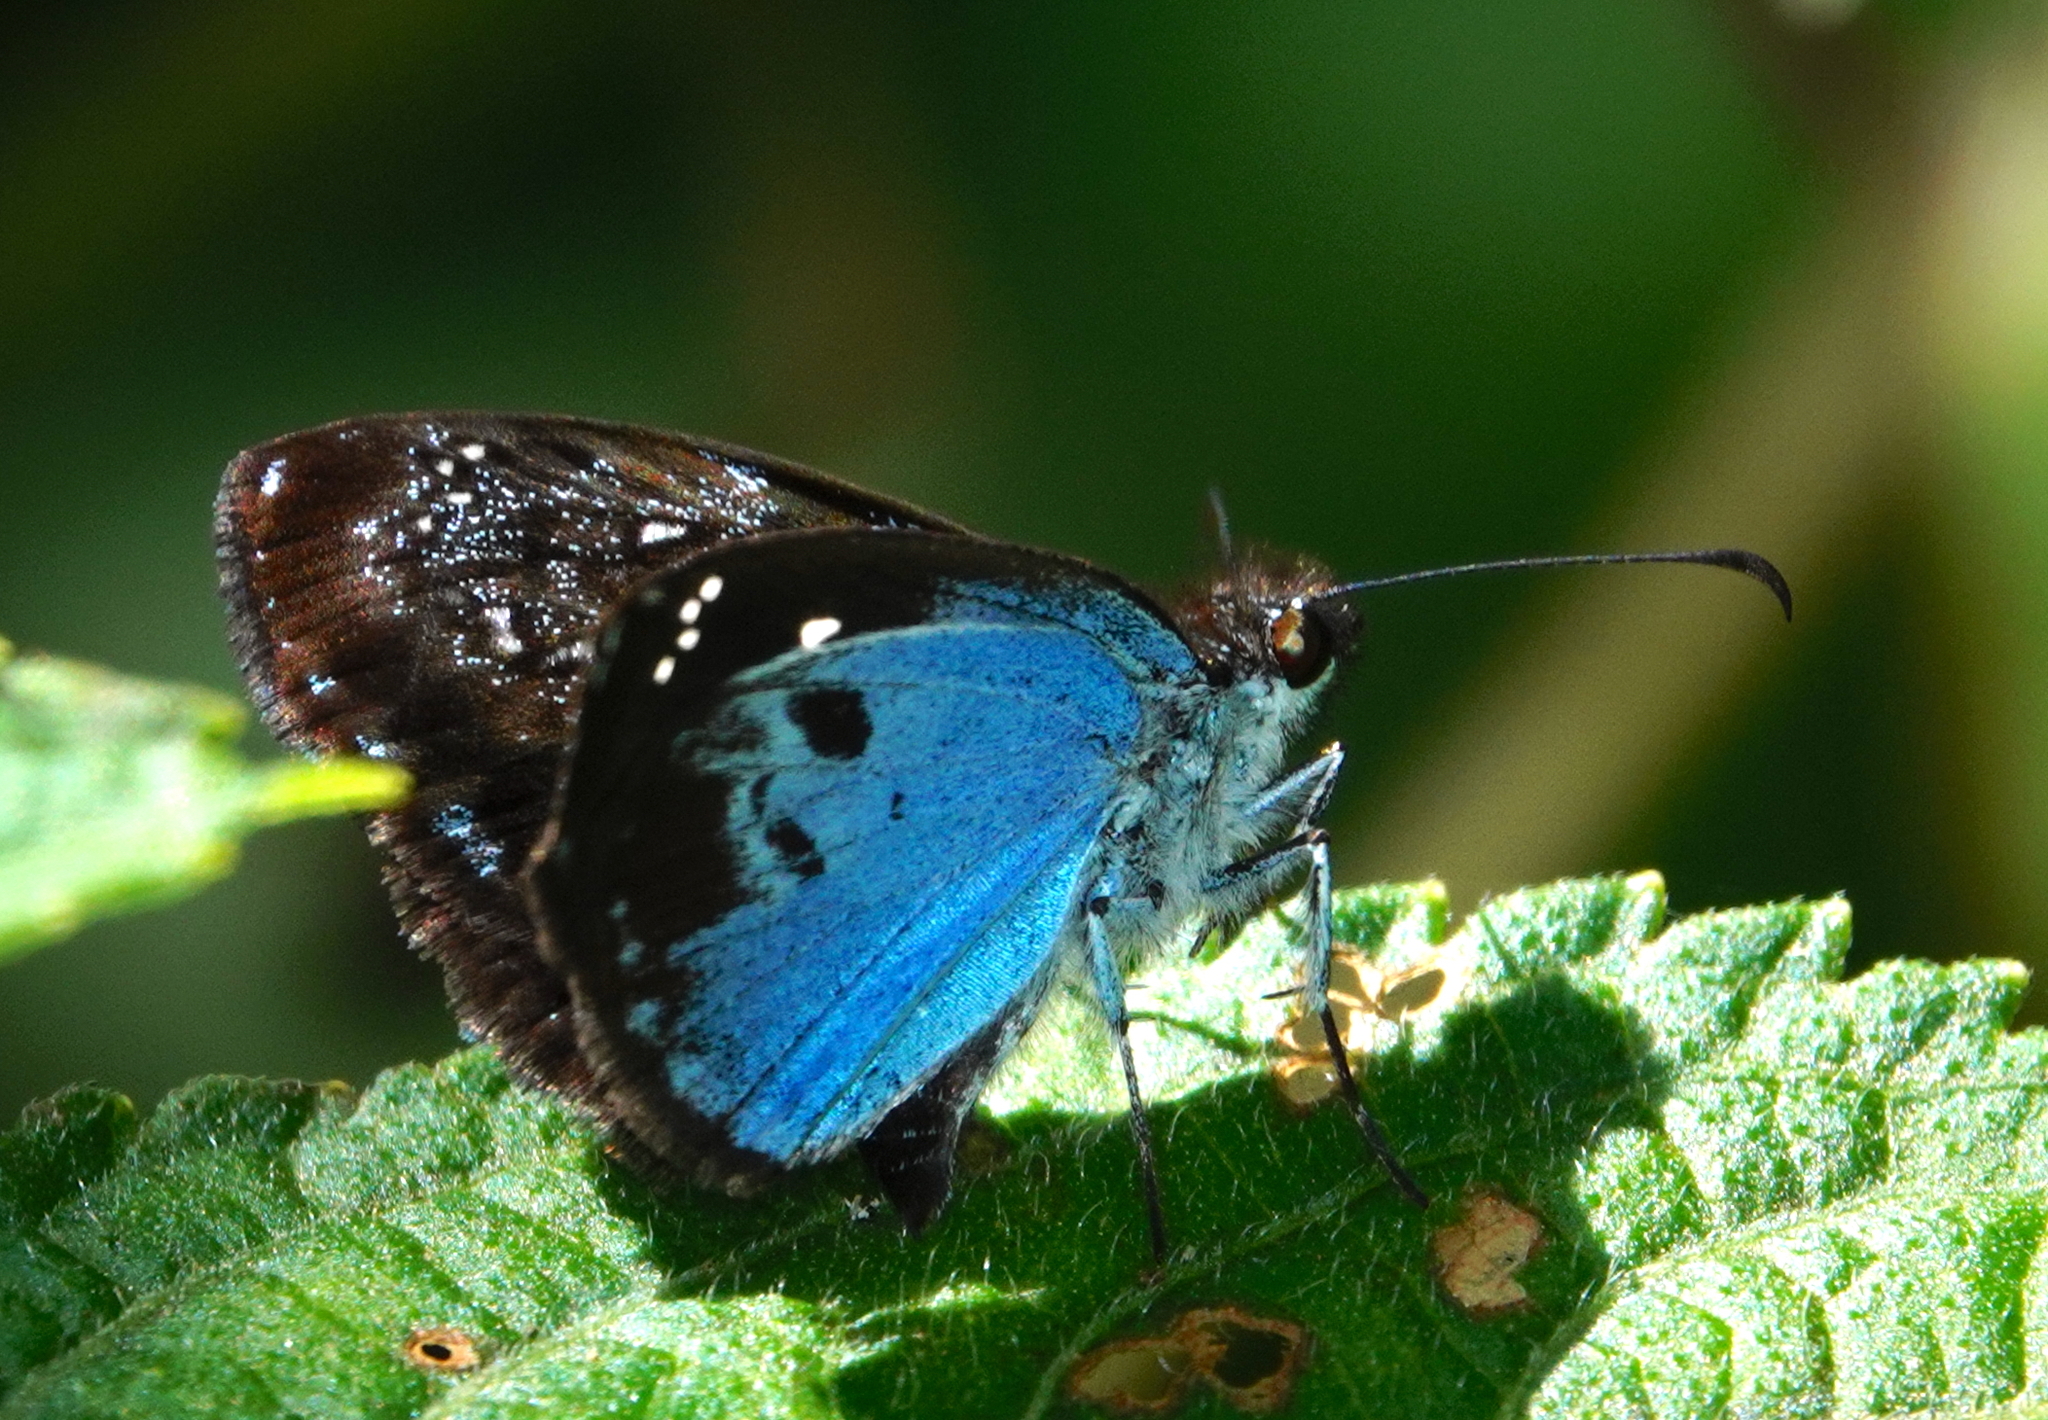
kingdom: Animalia
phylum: Arthropoda
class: Insecta
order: Lepidoptera
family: Hesperiidae
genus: Sophista
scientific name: Sophista grippa
